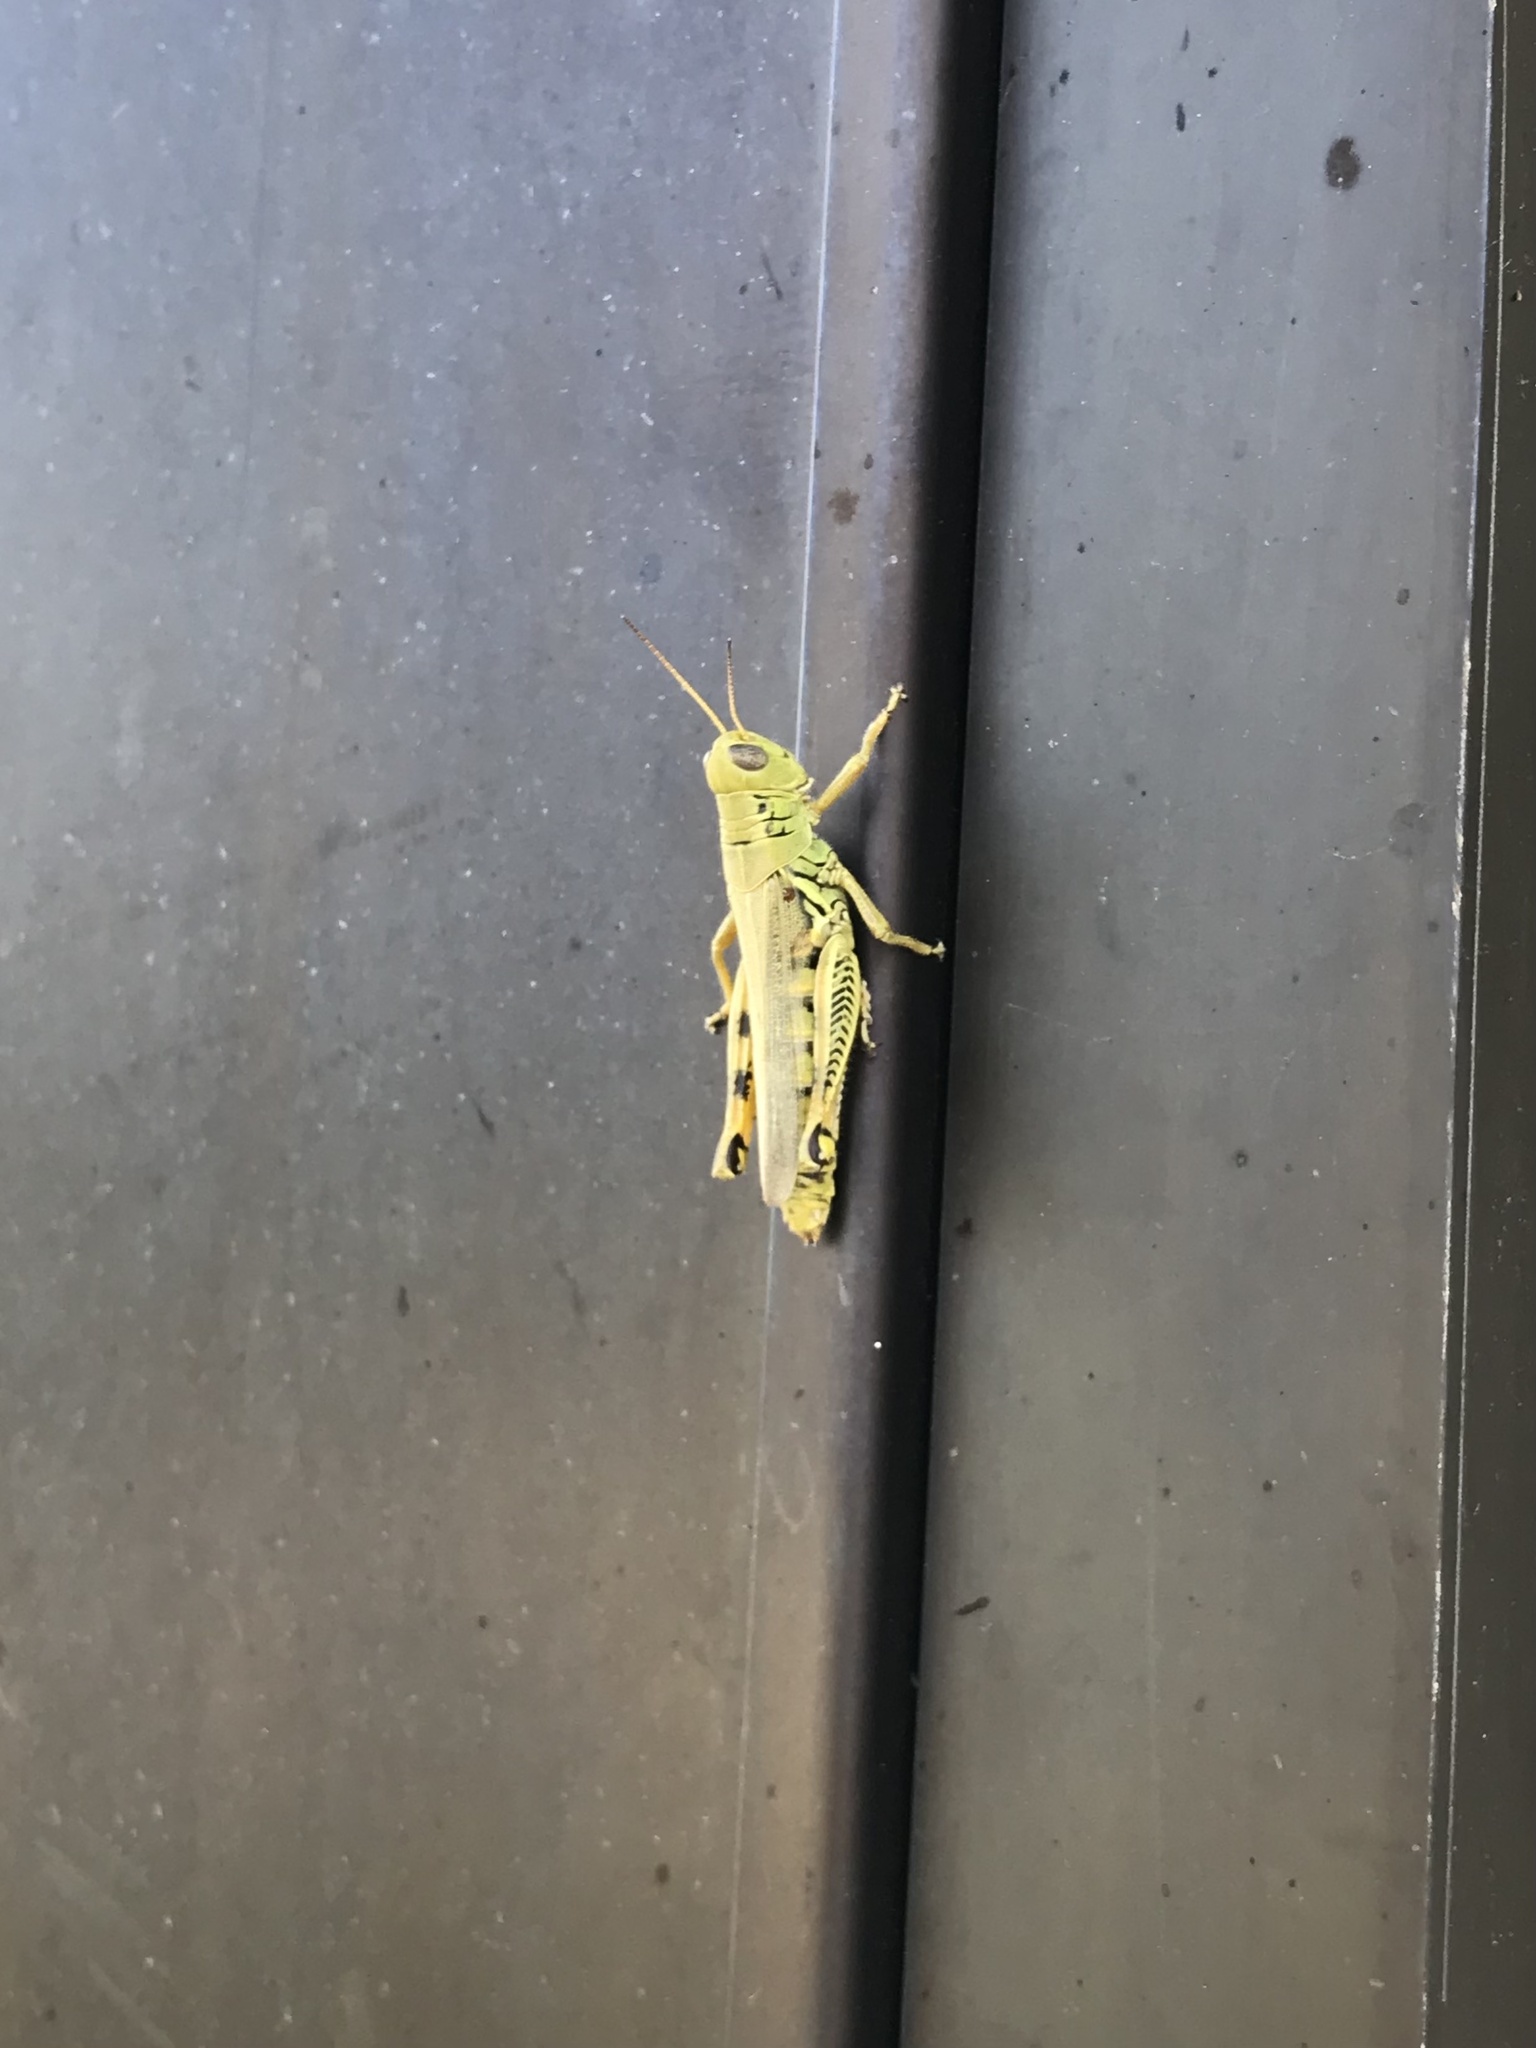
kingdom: Animalia
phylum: Arthropoda
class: Insecta
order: Orthoptera
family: Acrididae
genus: Melanoplus
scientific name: Melanoplus differentialis
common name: Differential grasshopper
